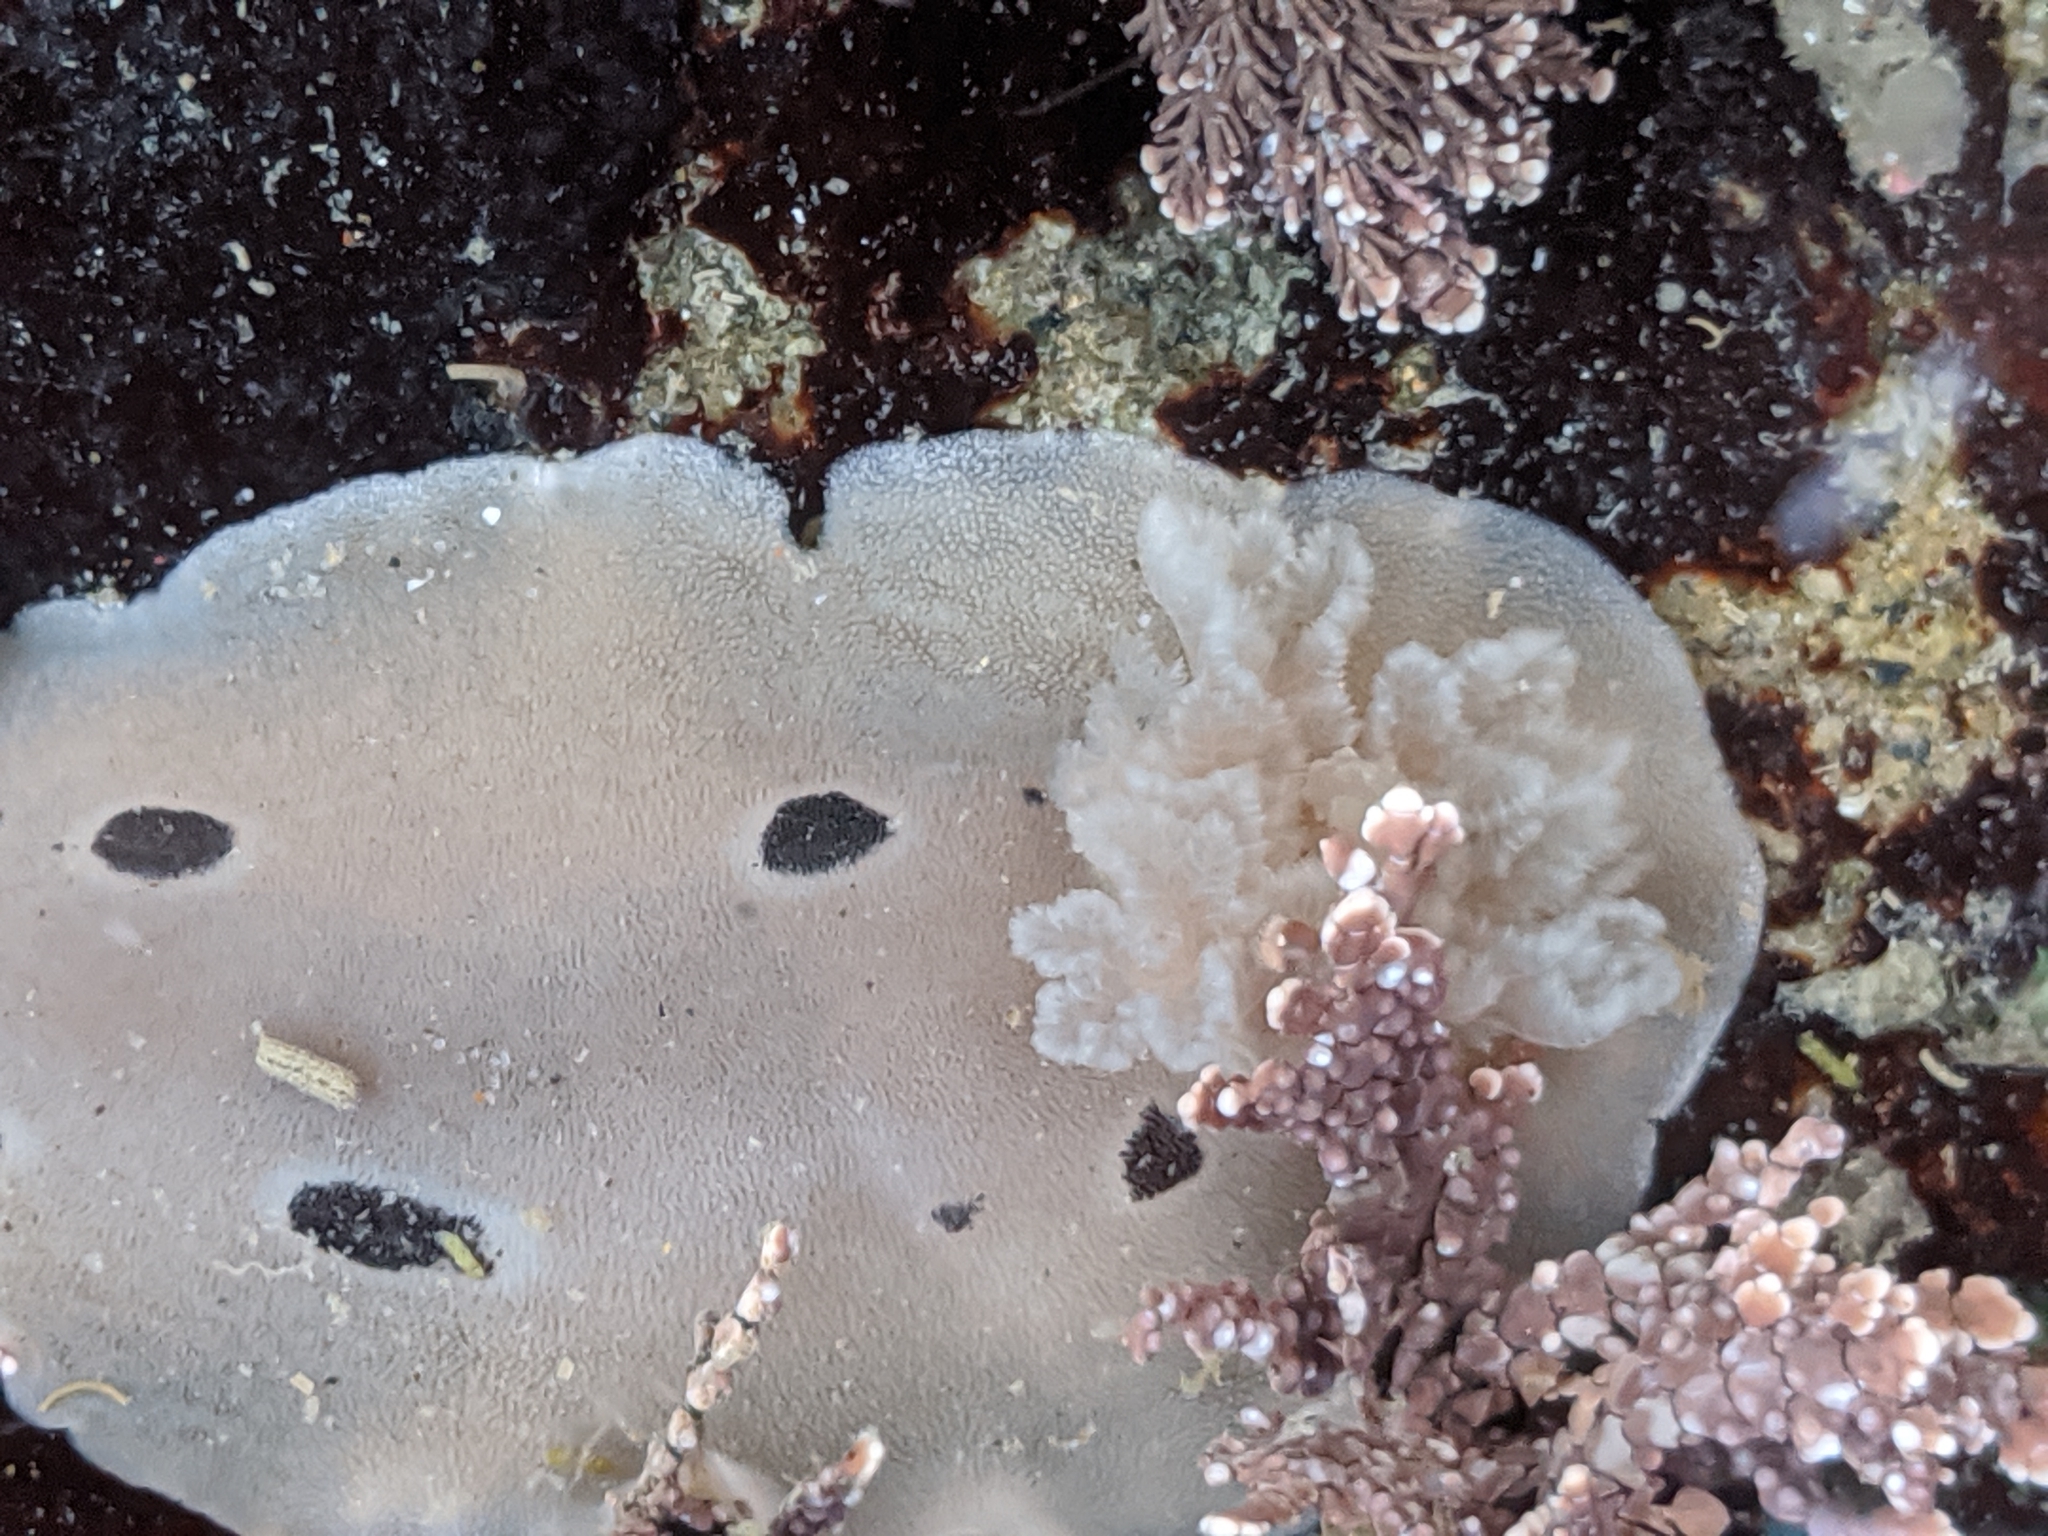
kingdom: Animalia
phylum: Mollusca
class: Gastropoda
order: Nudibranchia
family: Discodorididae
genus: Diaulula
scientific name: Diaulula sandiegensis
